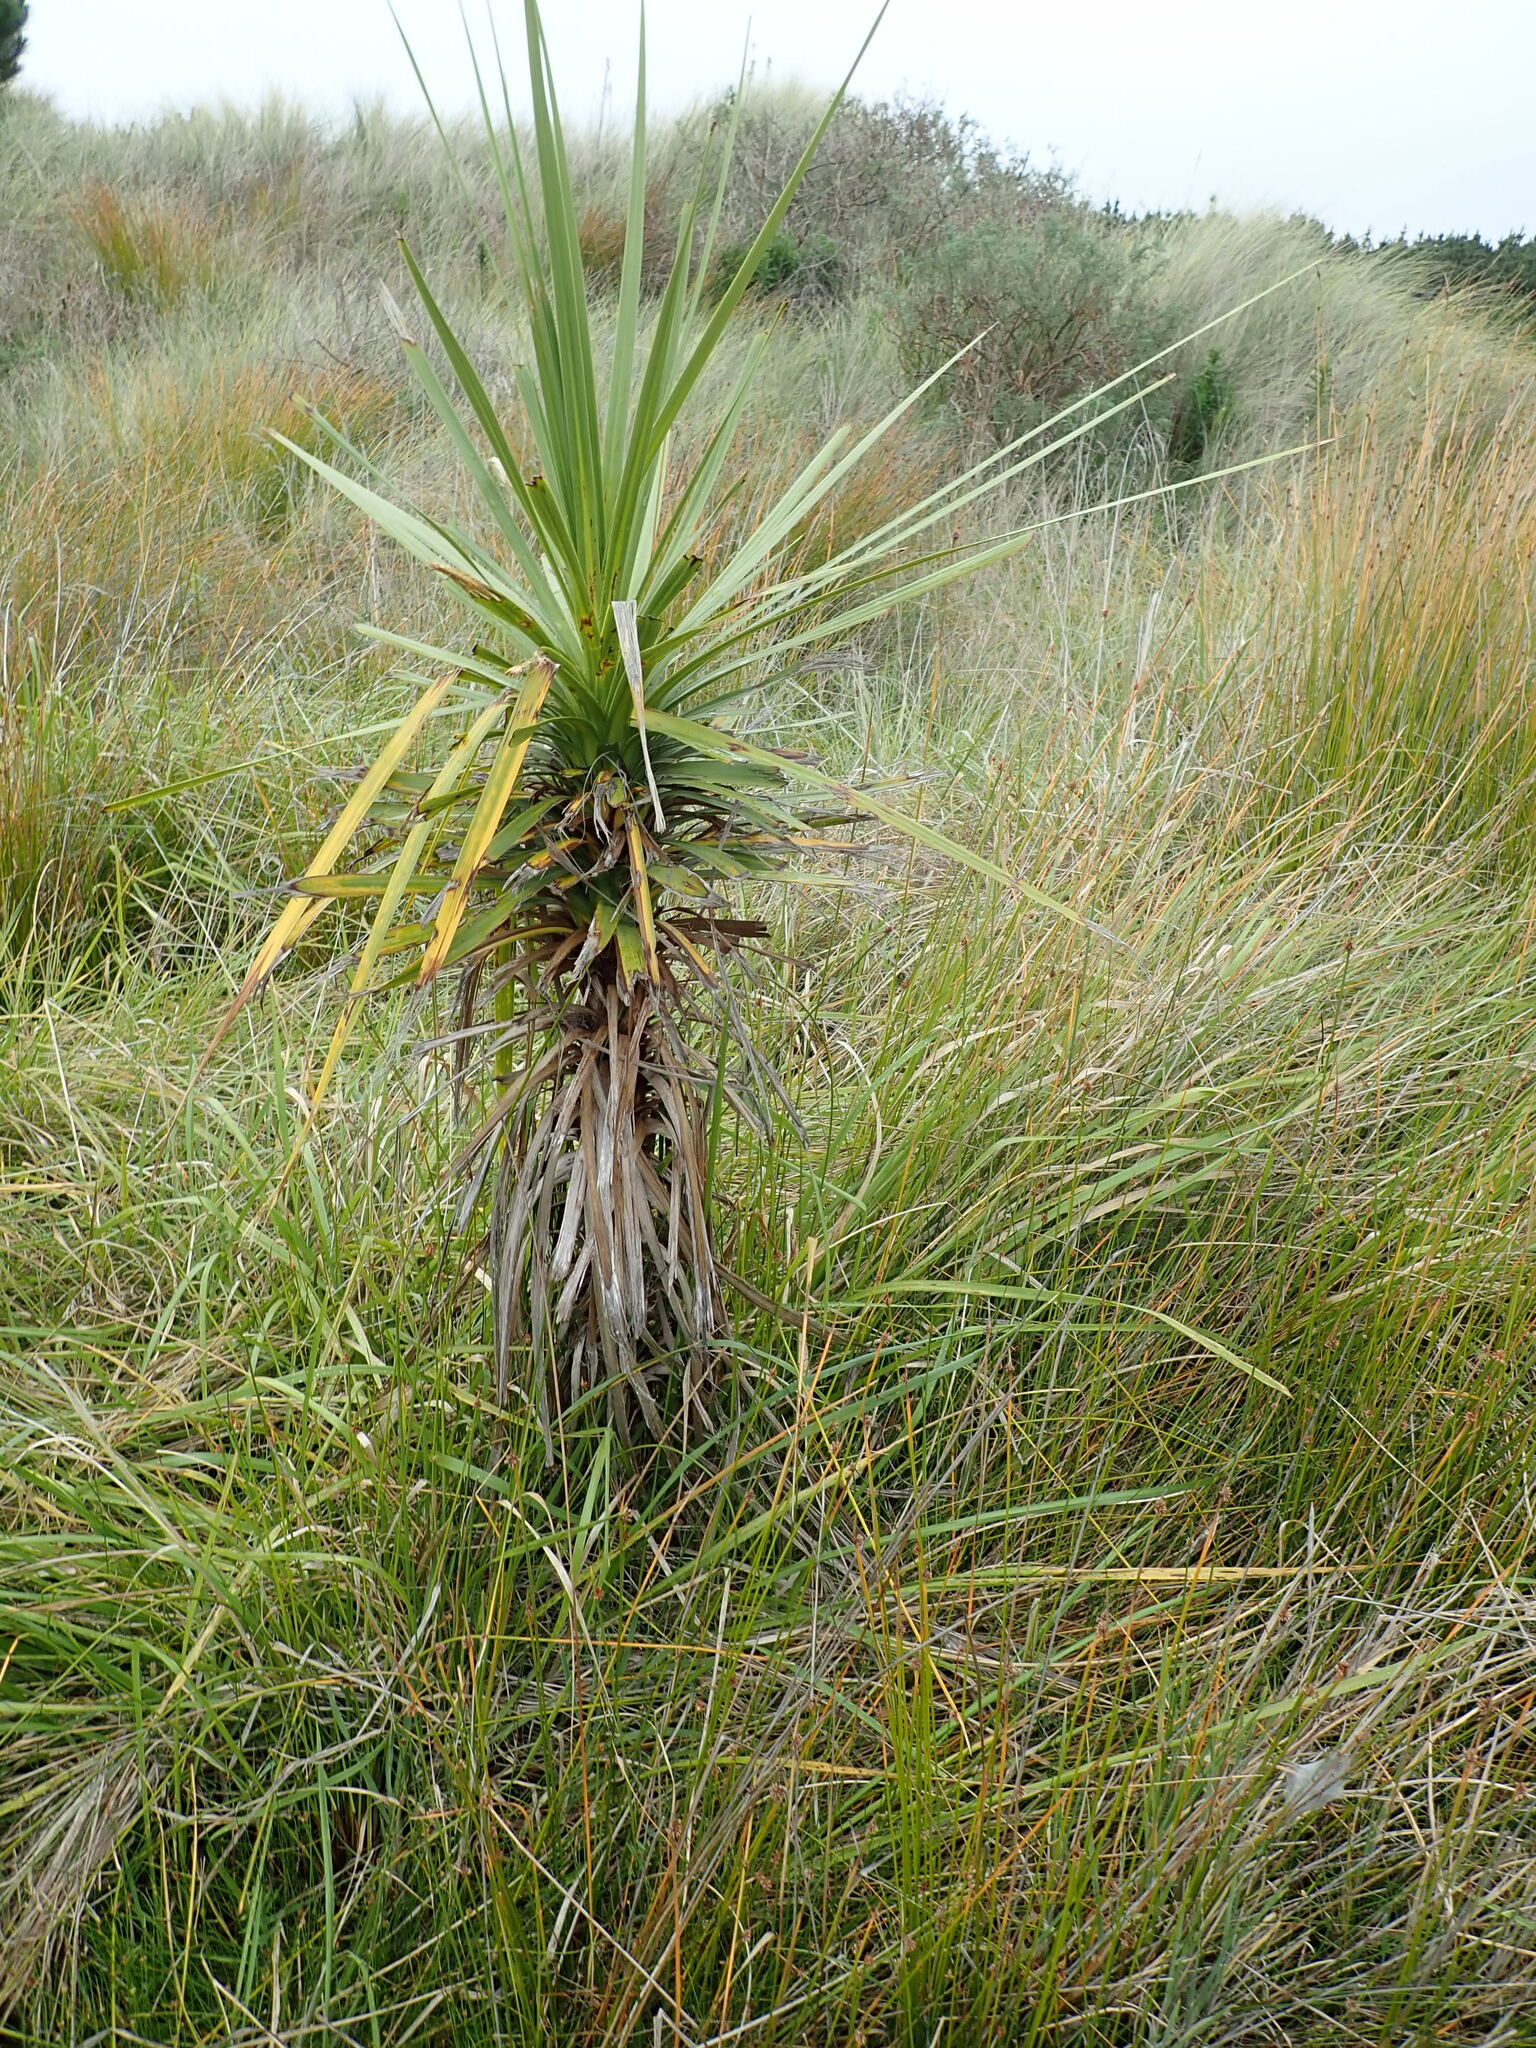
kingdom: Plantae
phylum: Tracheophyta
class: Liliopsida
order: Asparagales
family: Asparagaceae
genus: Cordyline
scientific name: Cordyline australis
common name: Cabbage-palm
